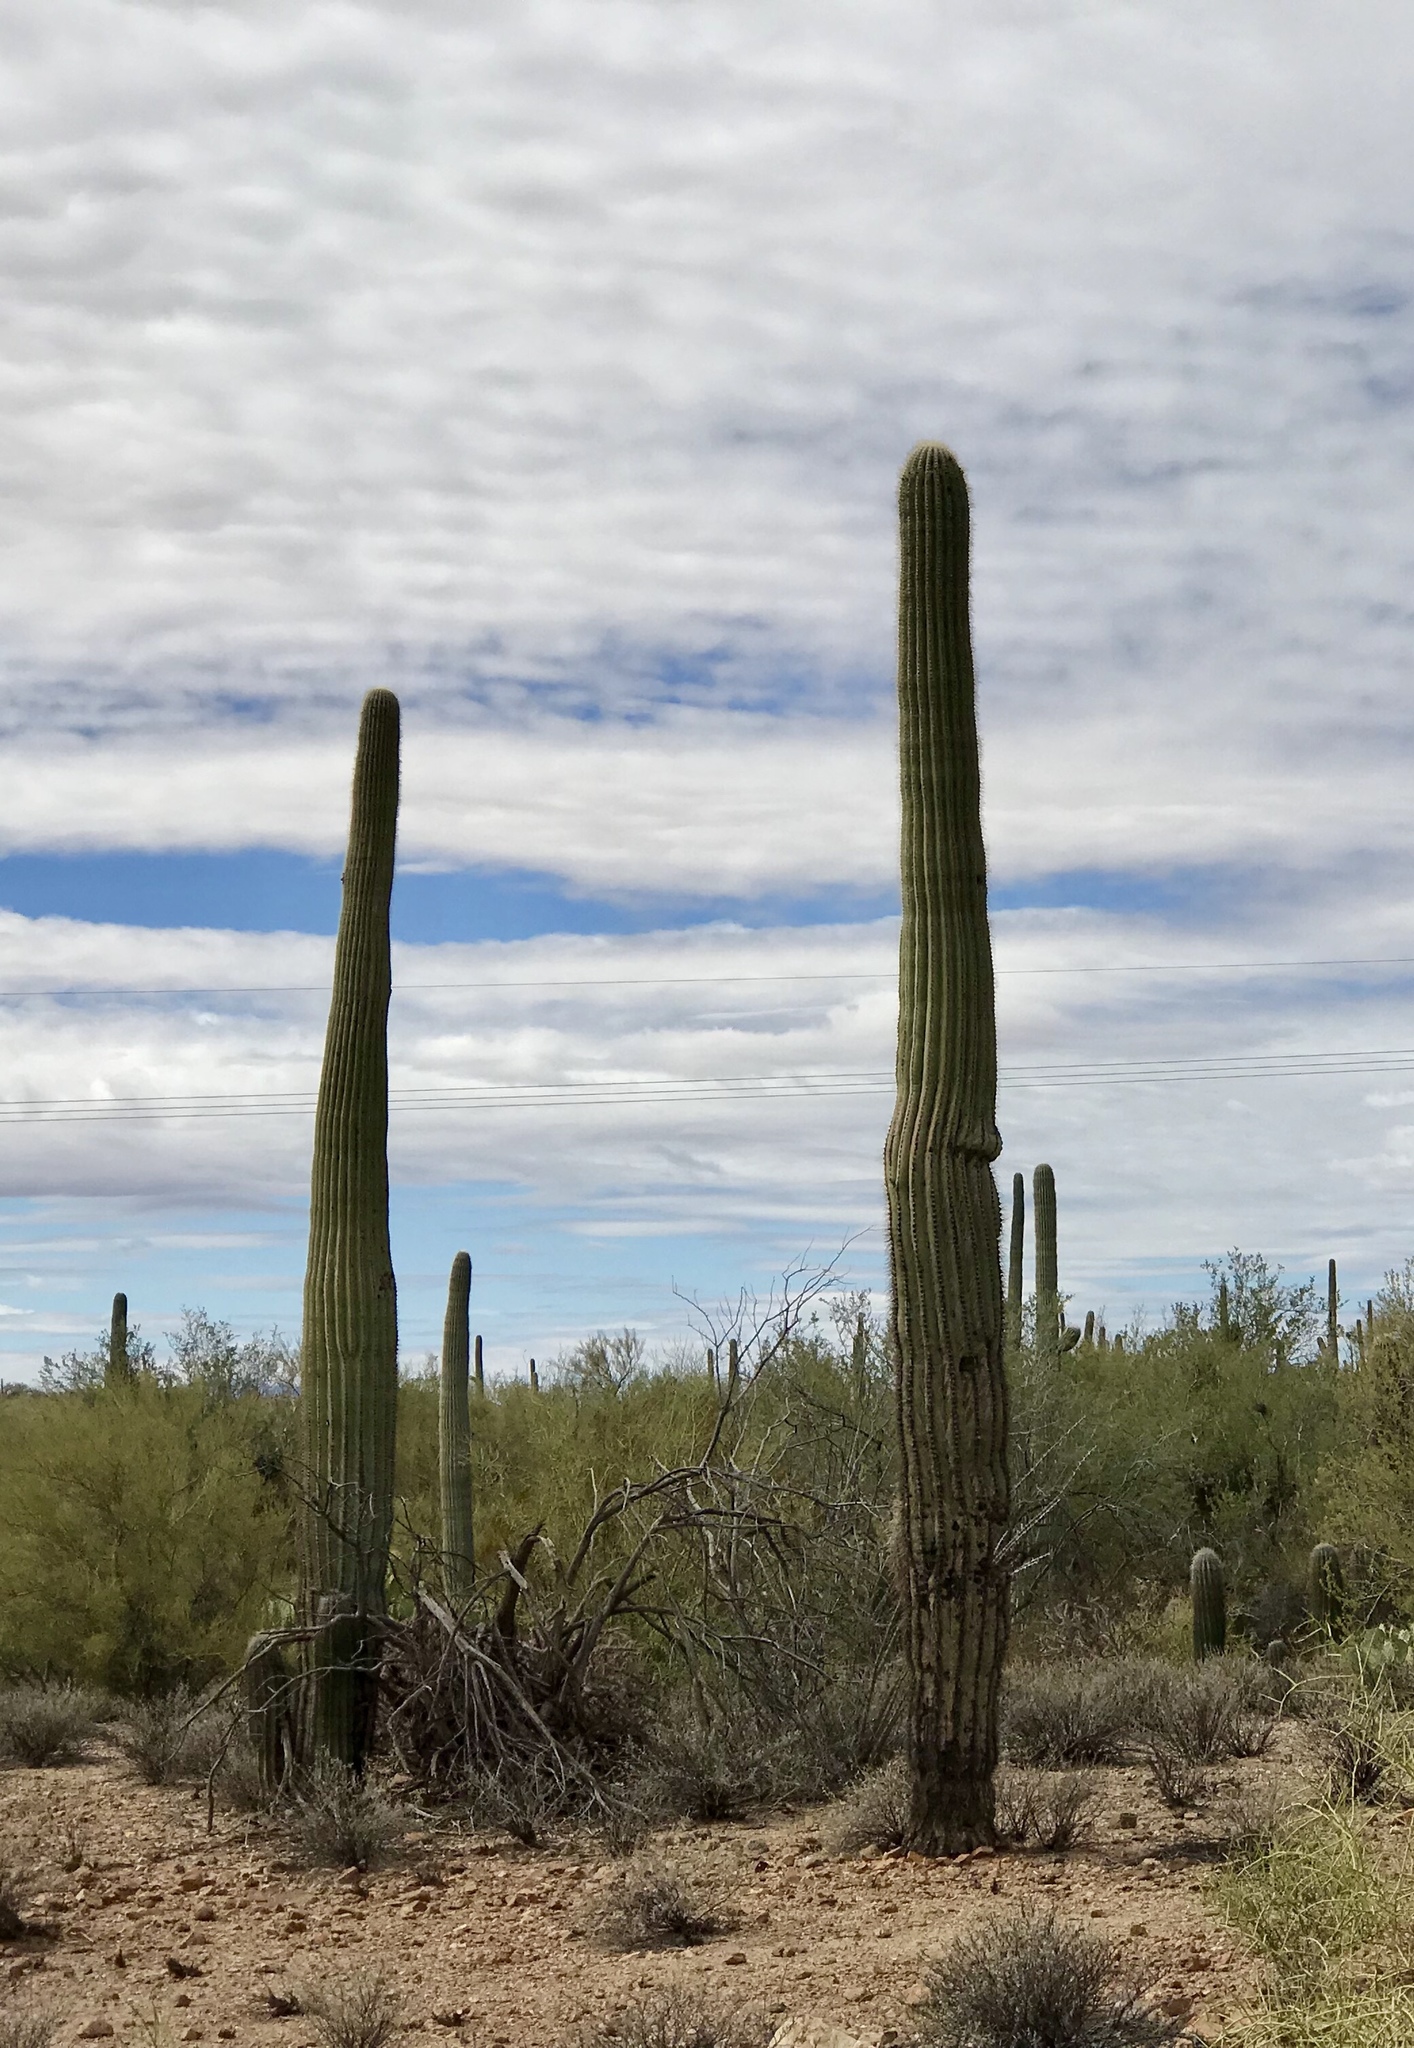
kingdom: Plantae
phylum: Tracheophyta
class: Magnoliopsida
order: Caryophyllales
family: Cactaceae
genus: Carnegiea
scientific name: Carnegiea gigantea
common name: Saguaro
